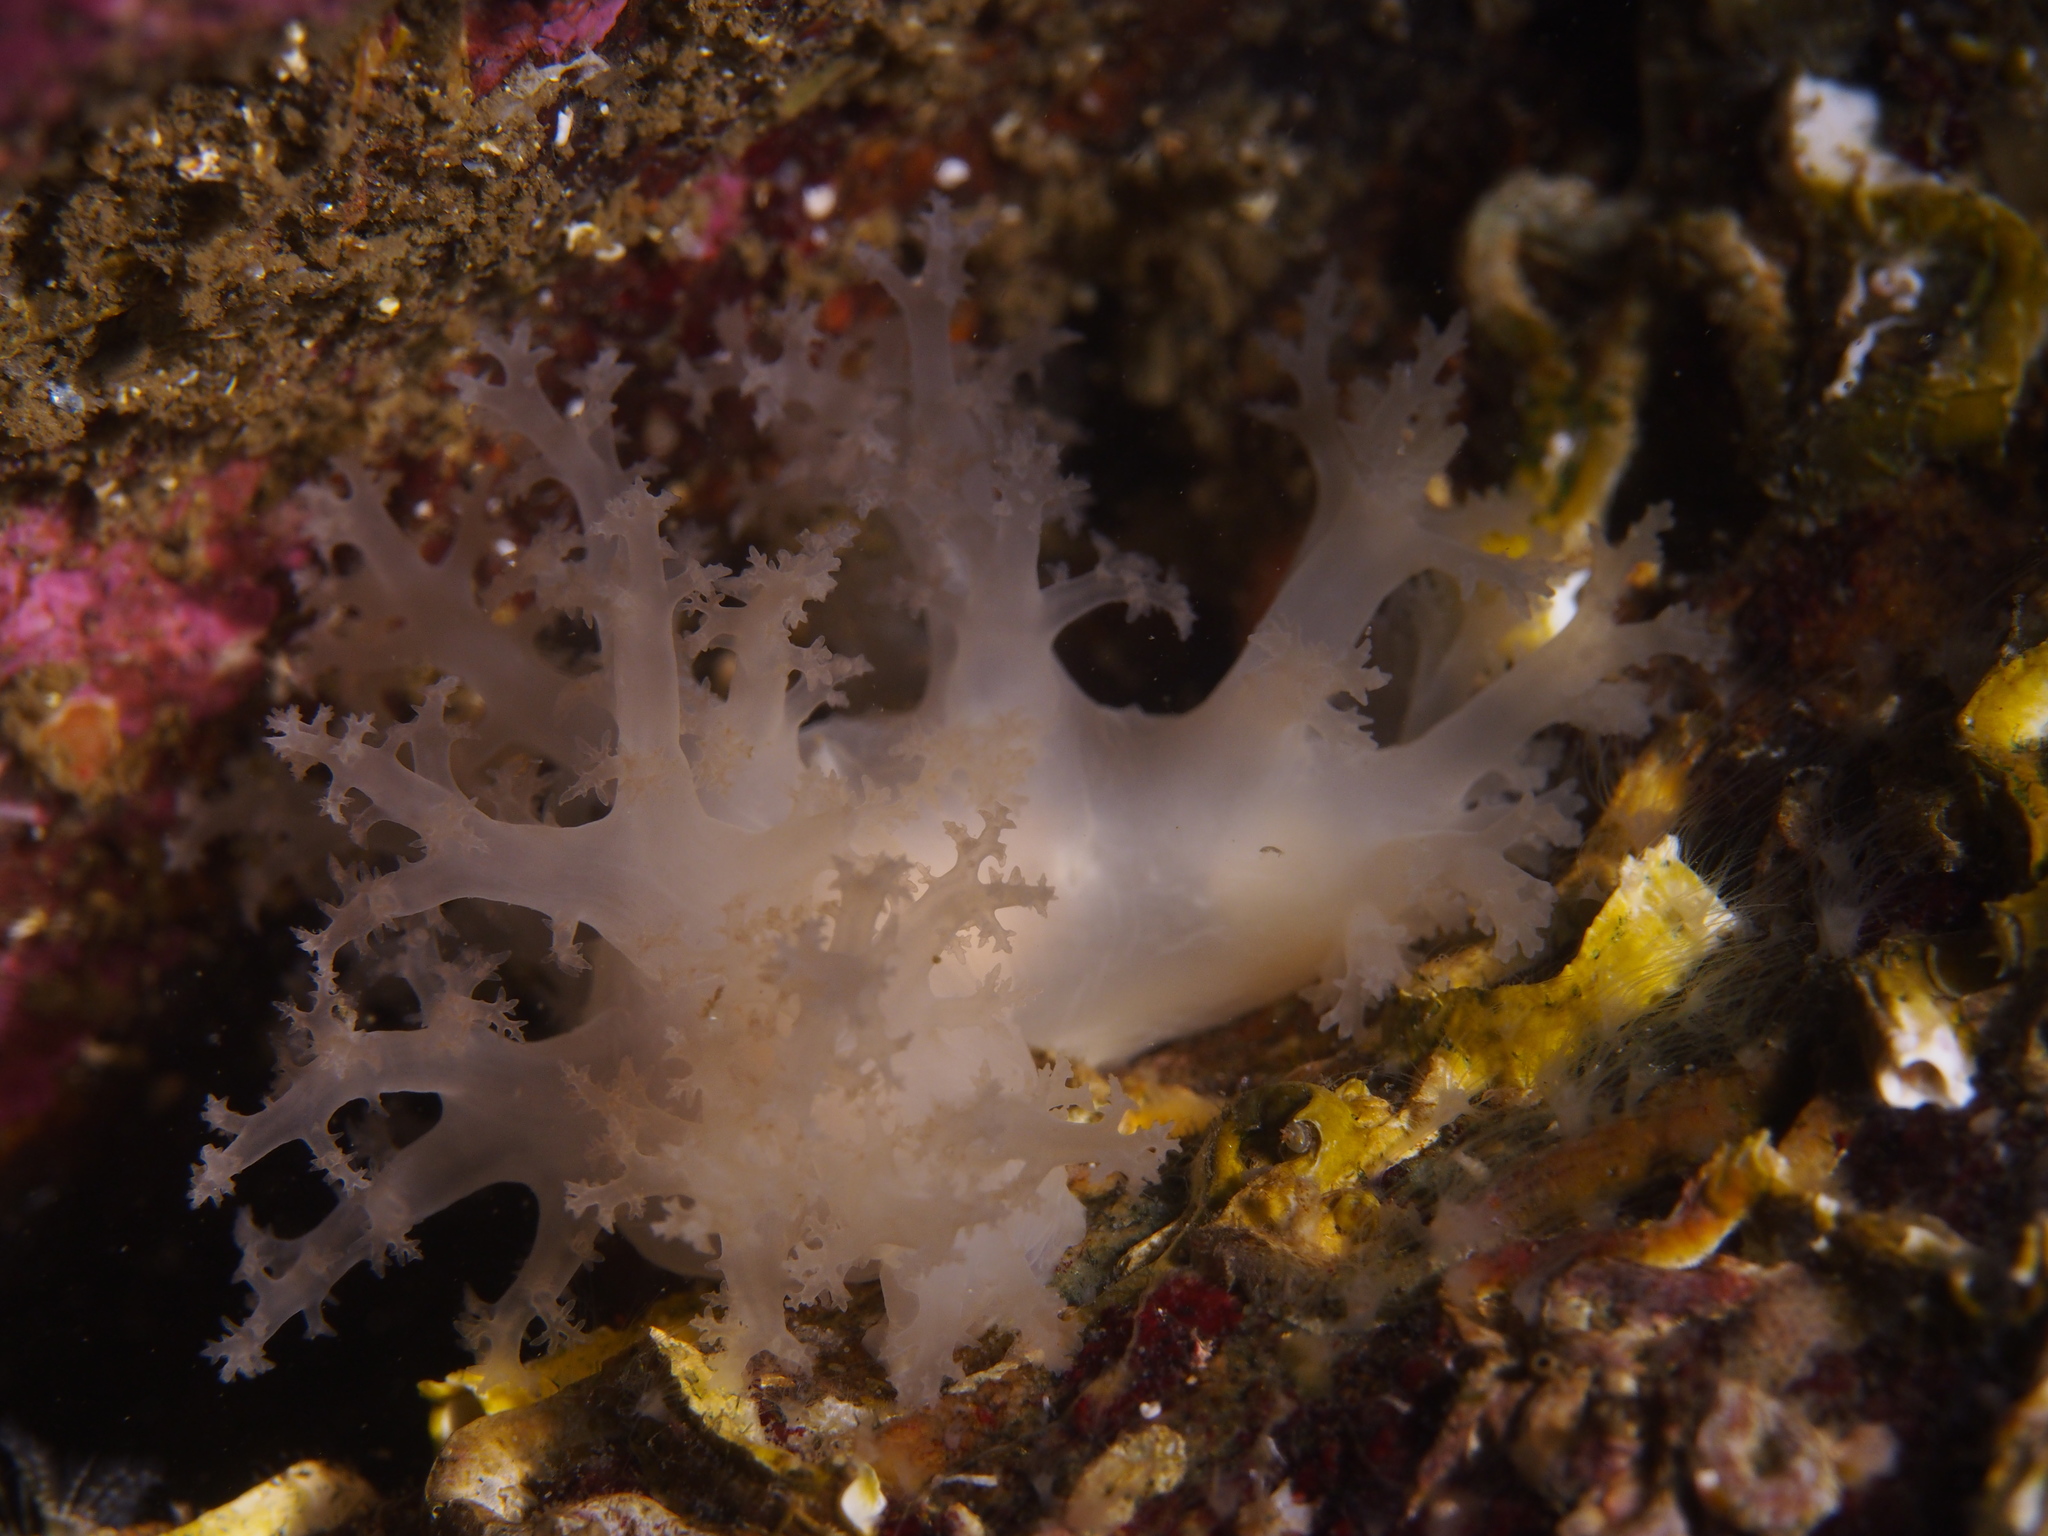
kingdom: Animalia
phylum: Mollusca
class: Gastropoda
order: Nudibranchia
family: Dendronotidae
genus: Dendronotus
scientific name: Dendronotus lacteus
